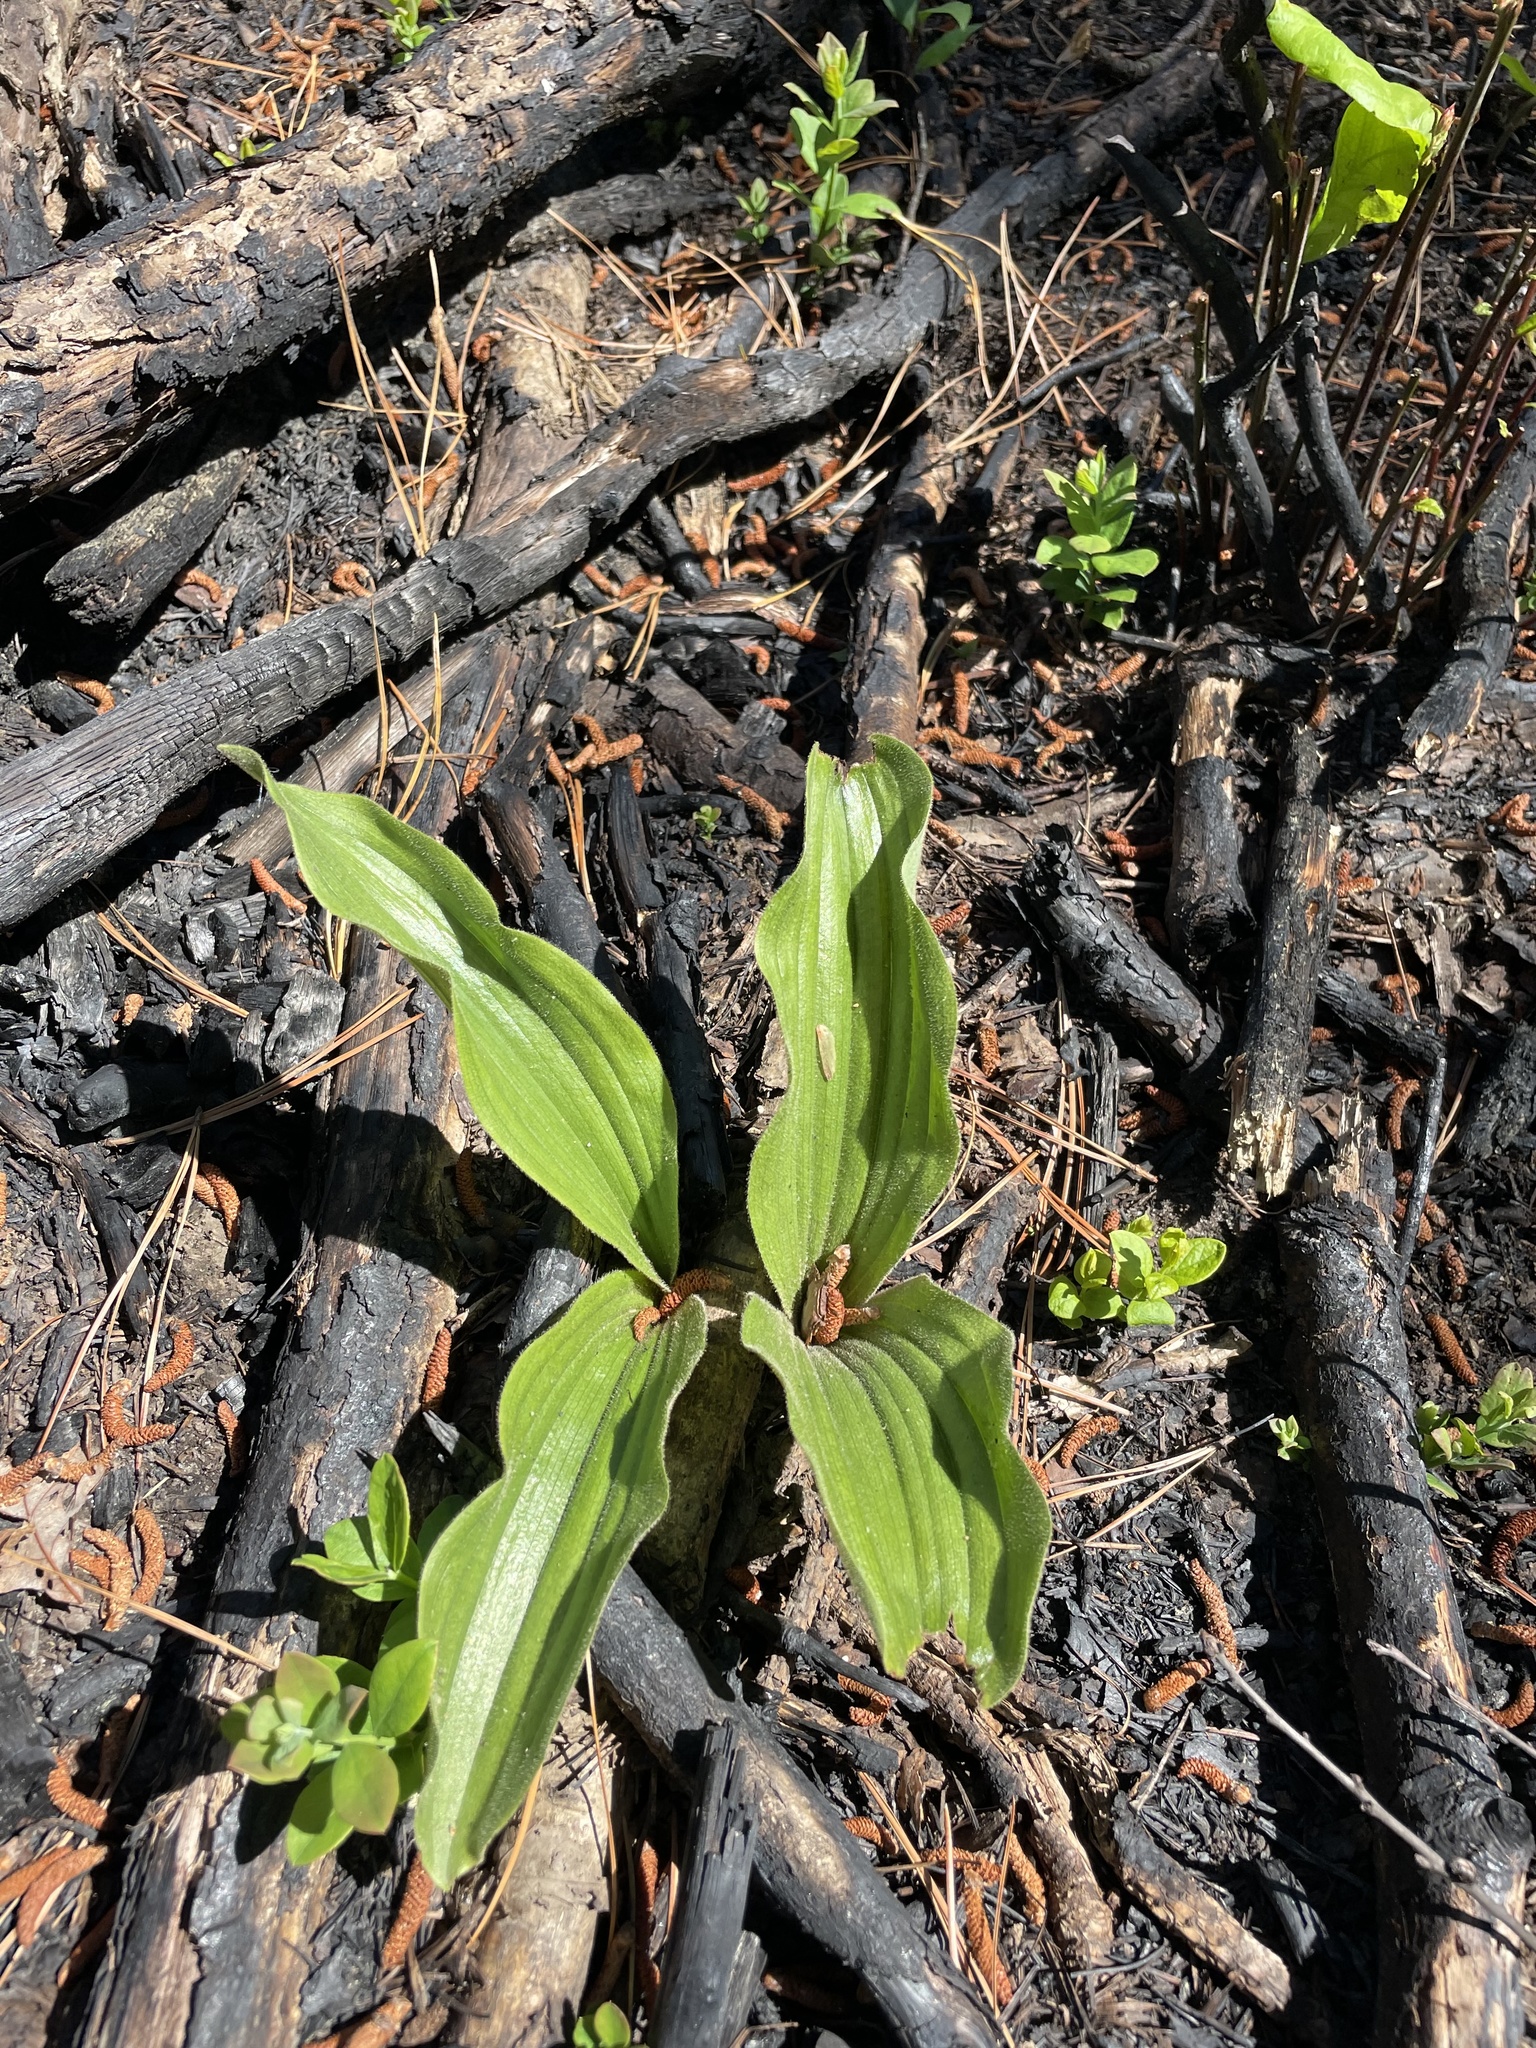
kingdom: Plantae
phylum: Tracheophyta
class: Liliopsida
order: Asparagales
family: Orchidaceae
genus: Cypripedium
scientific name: Cypripedium acaule
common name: Pink lady's-slipper
